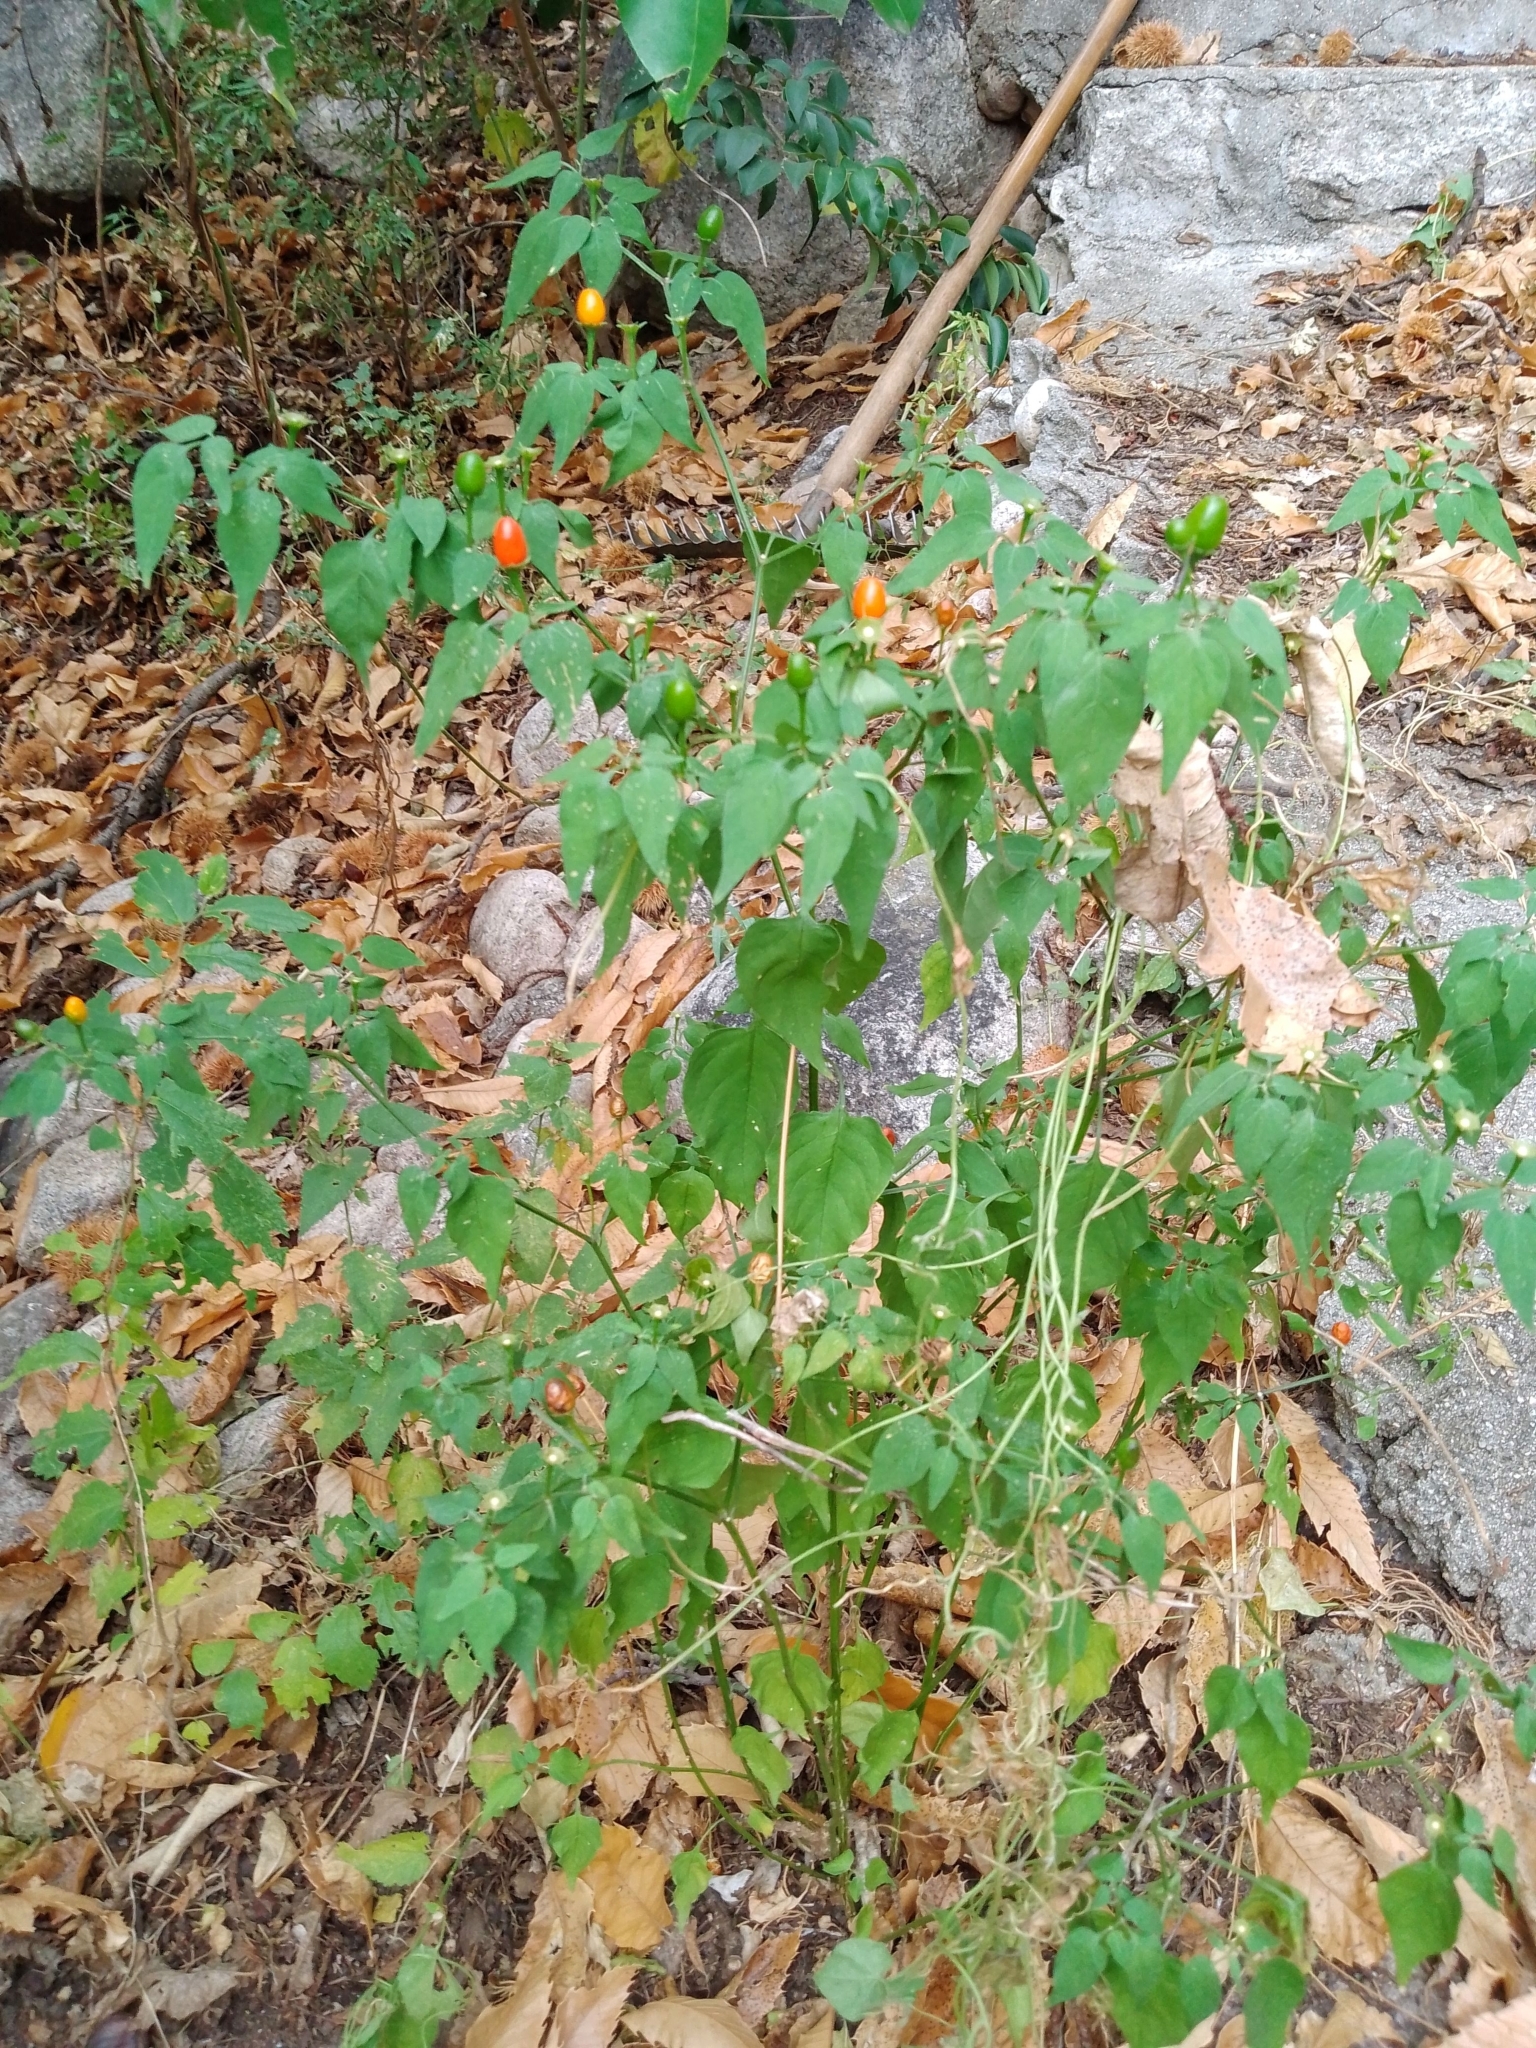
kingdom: Plantae
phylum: Tracheophyta
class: Magnoliopsida
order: Solanales
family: Solanaceae
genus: Capsicum
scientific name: Capsicum chacoense
